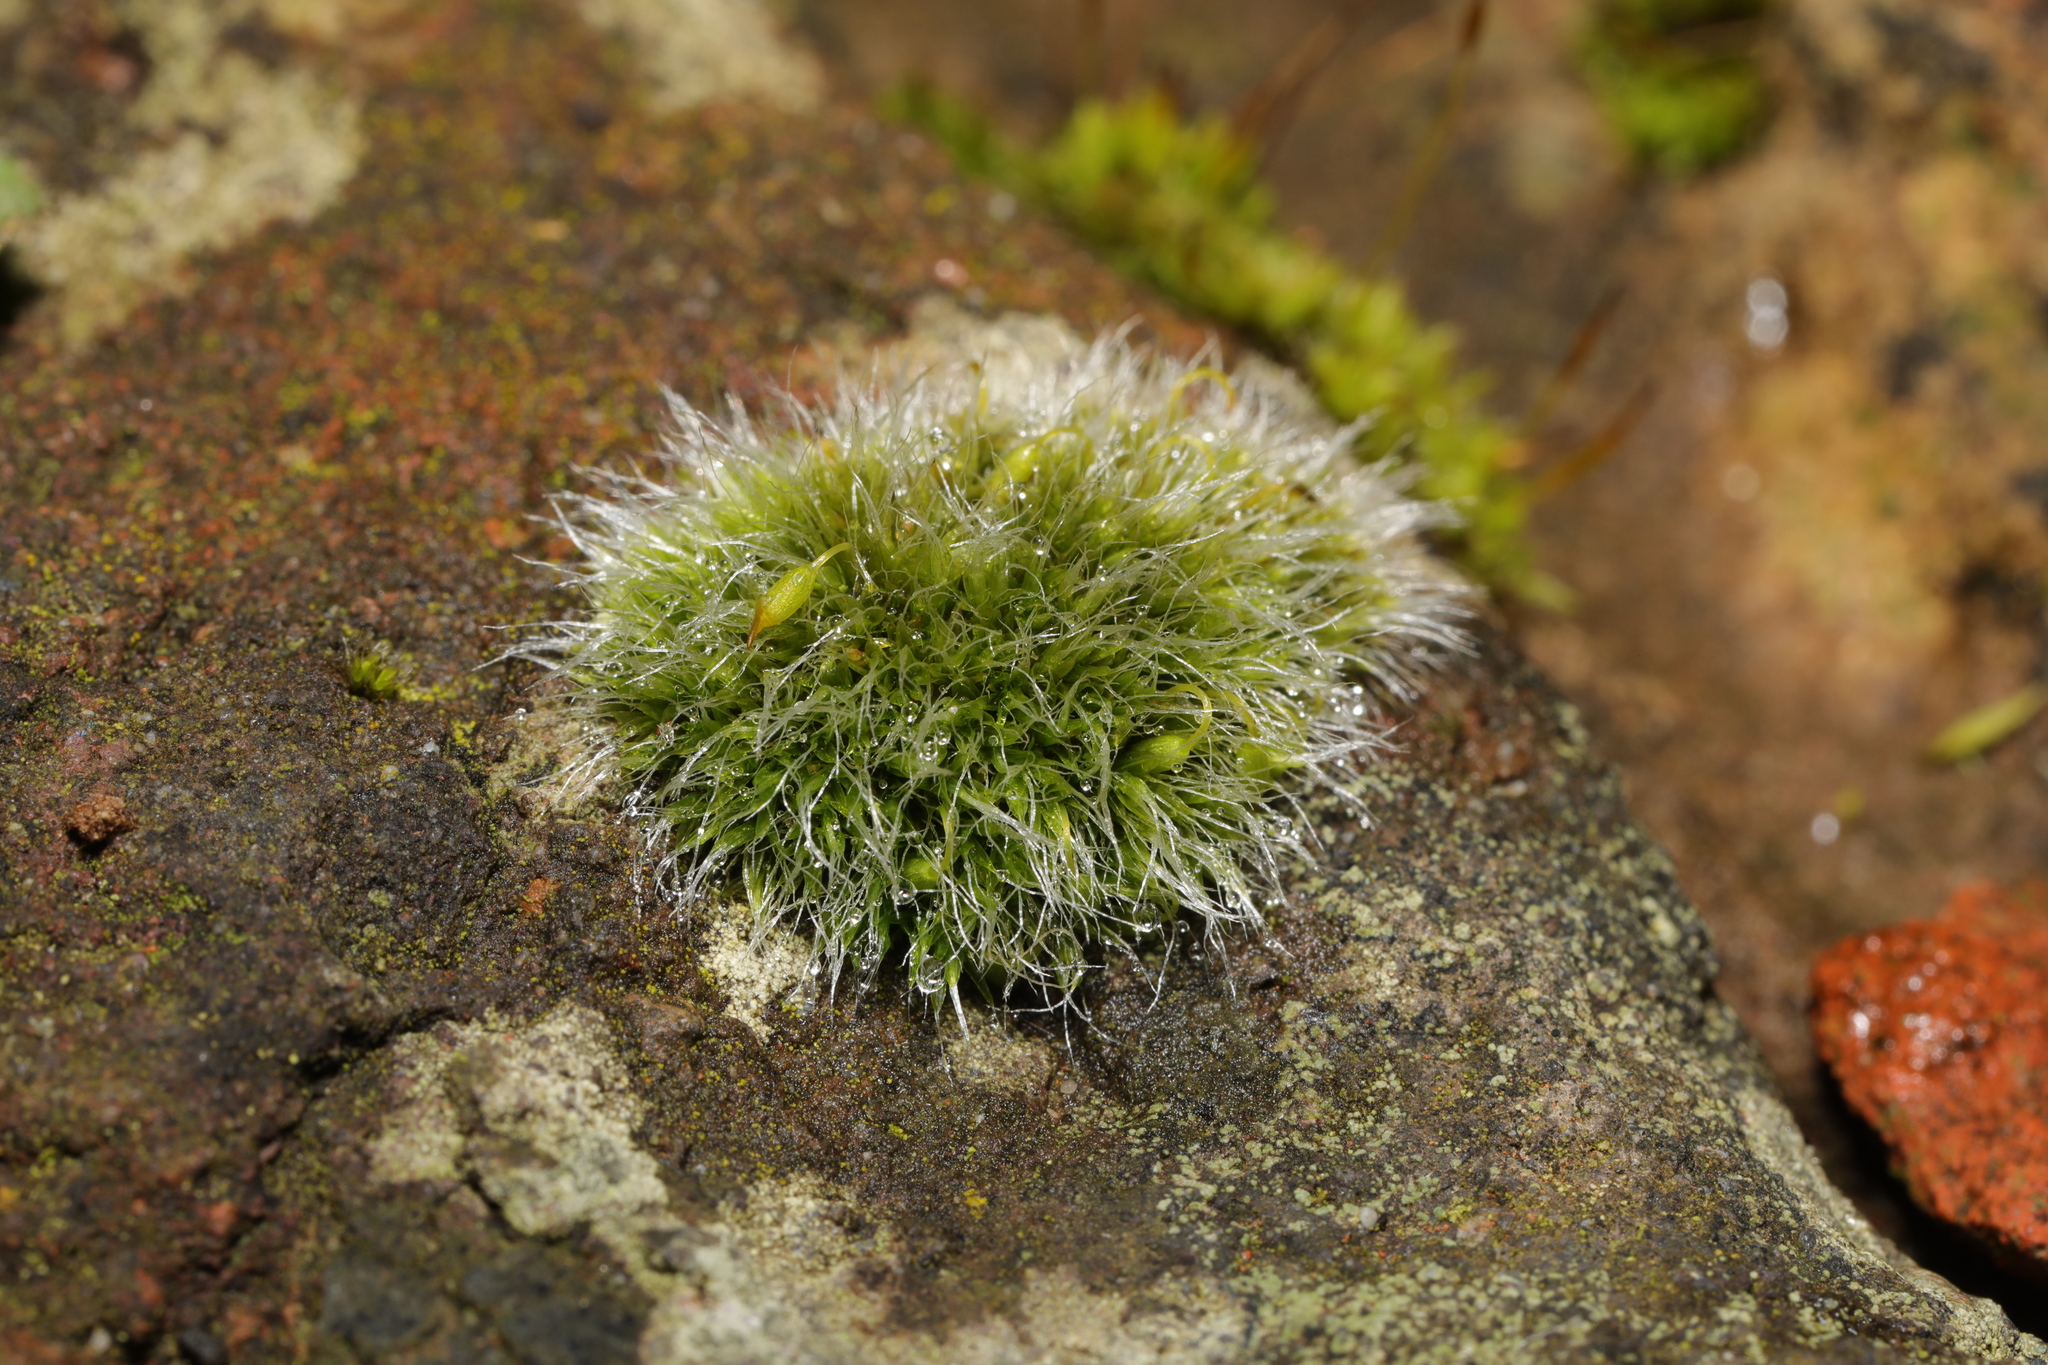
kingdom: Plantae
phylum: Bryophyta
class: Bryopsida
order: Grimmiales
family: Grimmiaceae
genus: Grimmia
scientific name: Grimmia pulvinata
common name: Grey-cushioned grimmia
